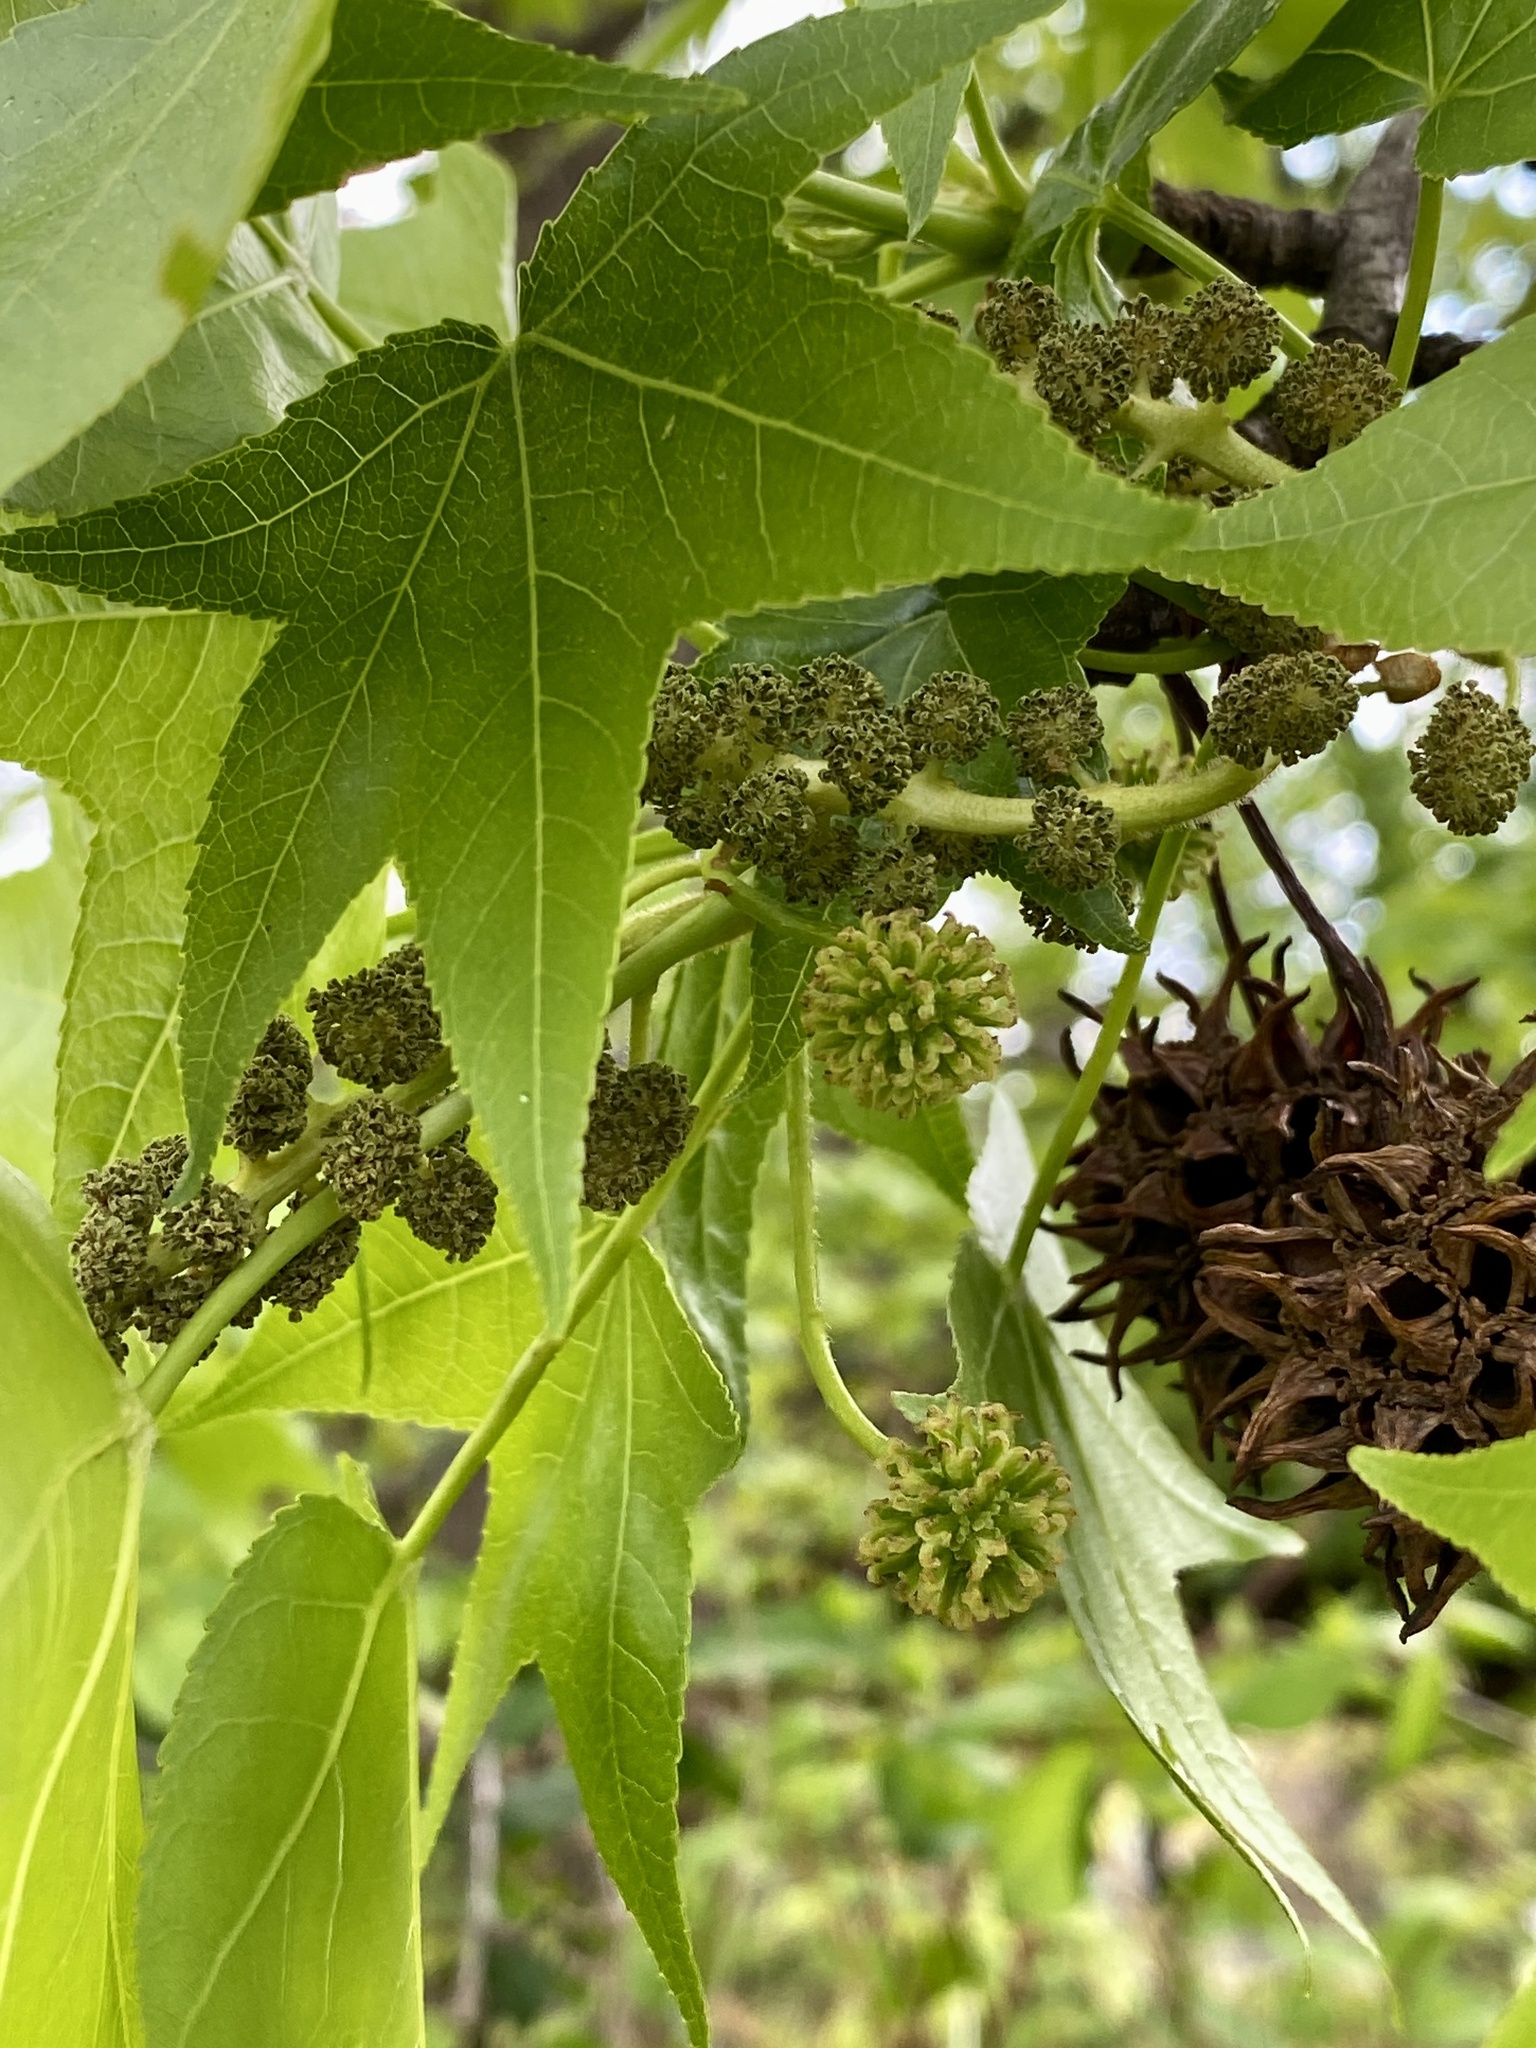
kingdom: Plantae
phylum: Tracheophyta
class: Magnoliopsida
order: Saxifragales
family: Altingiaceae
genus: Liquidambar
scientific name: Liquidambar styraciflua
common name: Sweet gum
